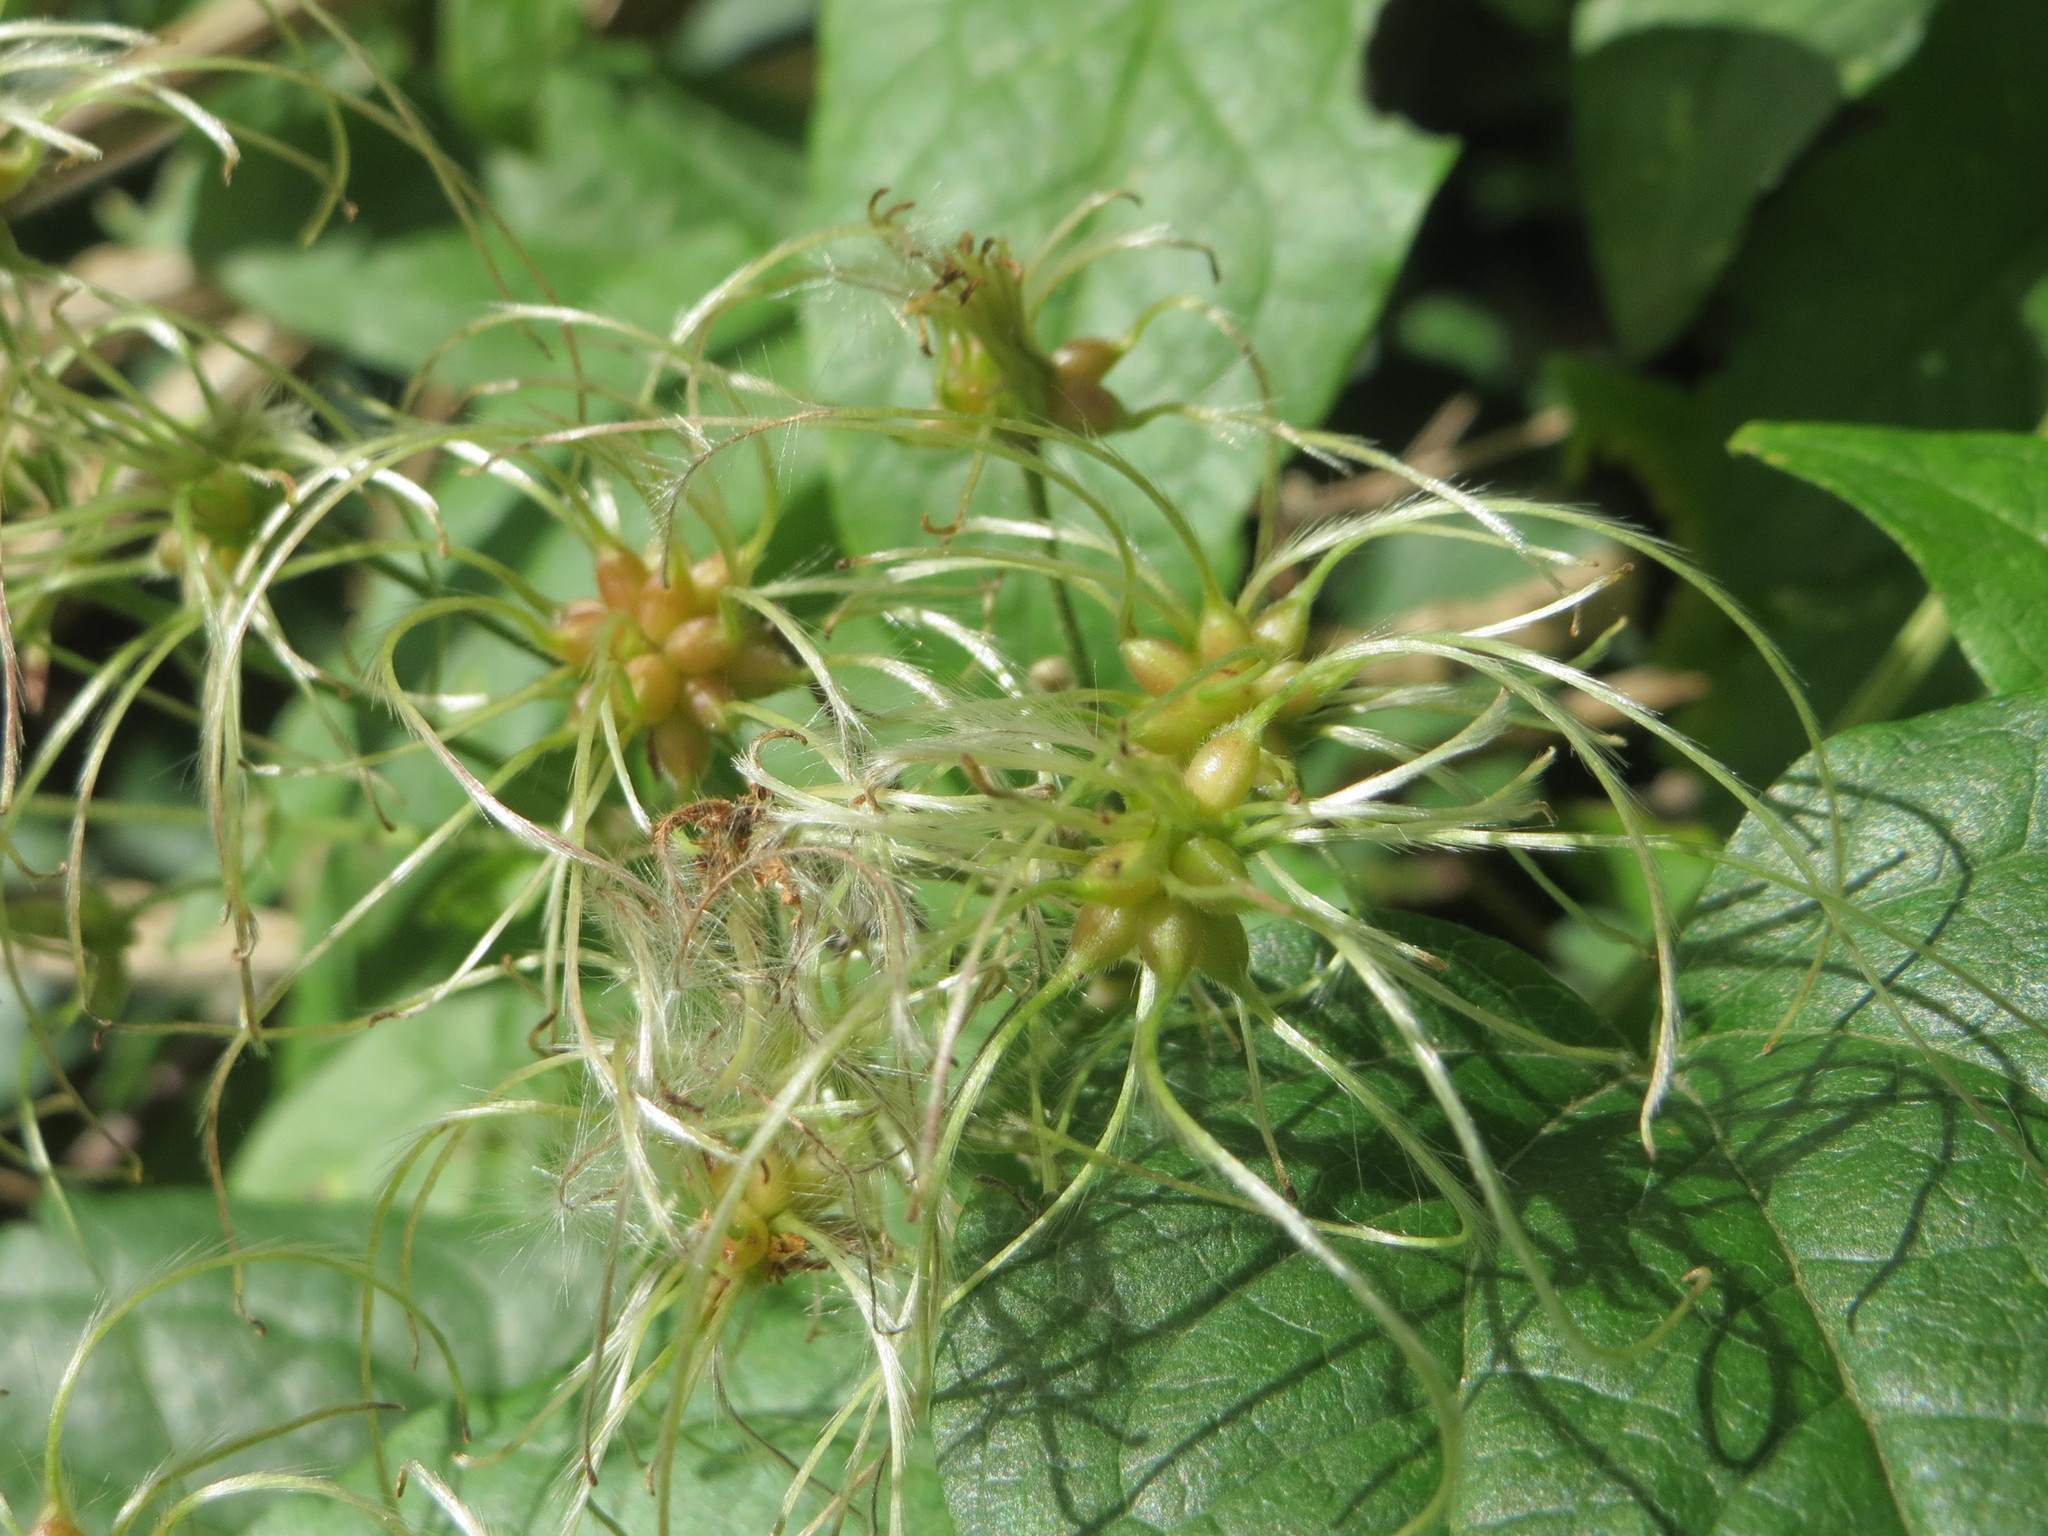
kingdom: Plantae
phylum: Tracheophyta
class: Magnoliopsida
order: Ranunculales
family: Ranunculaceae
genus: Clematis
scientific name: Clematis vitalba
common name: Evergreen clematis
